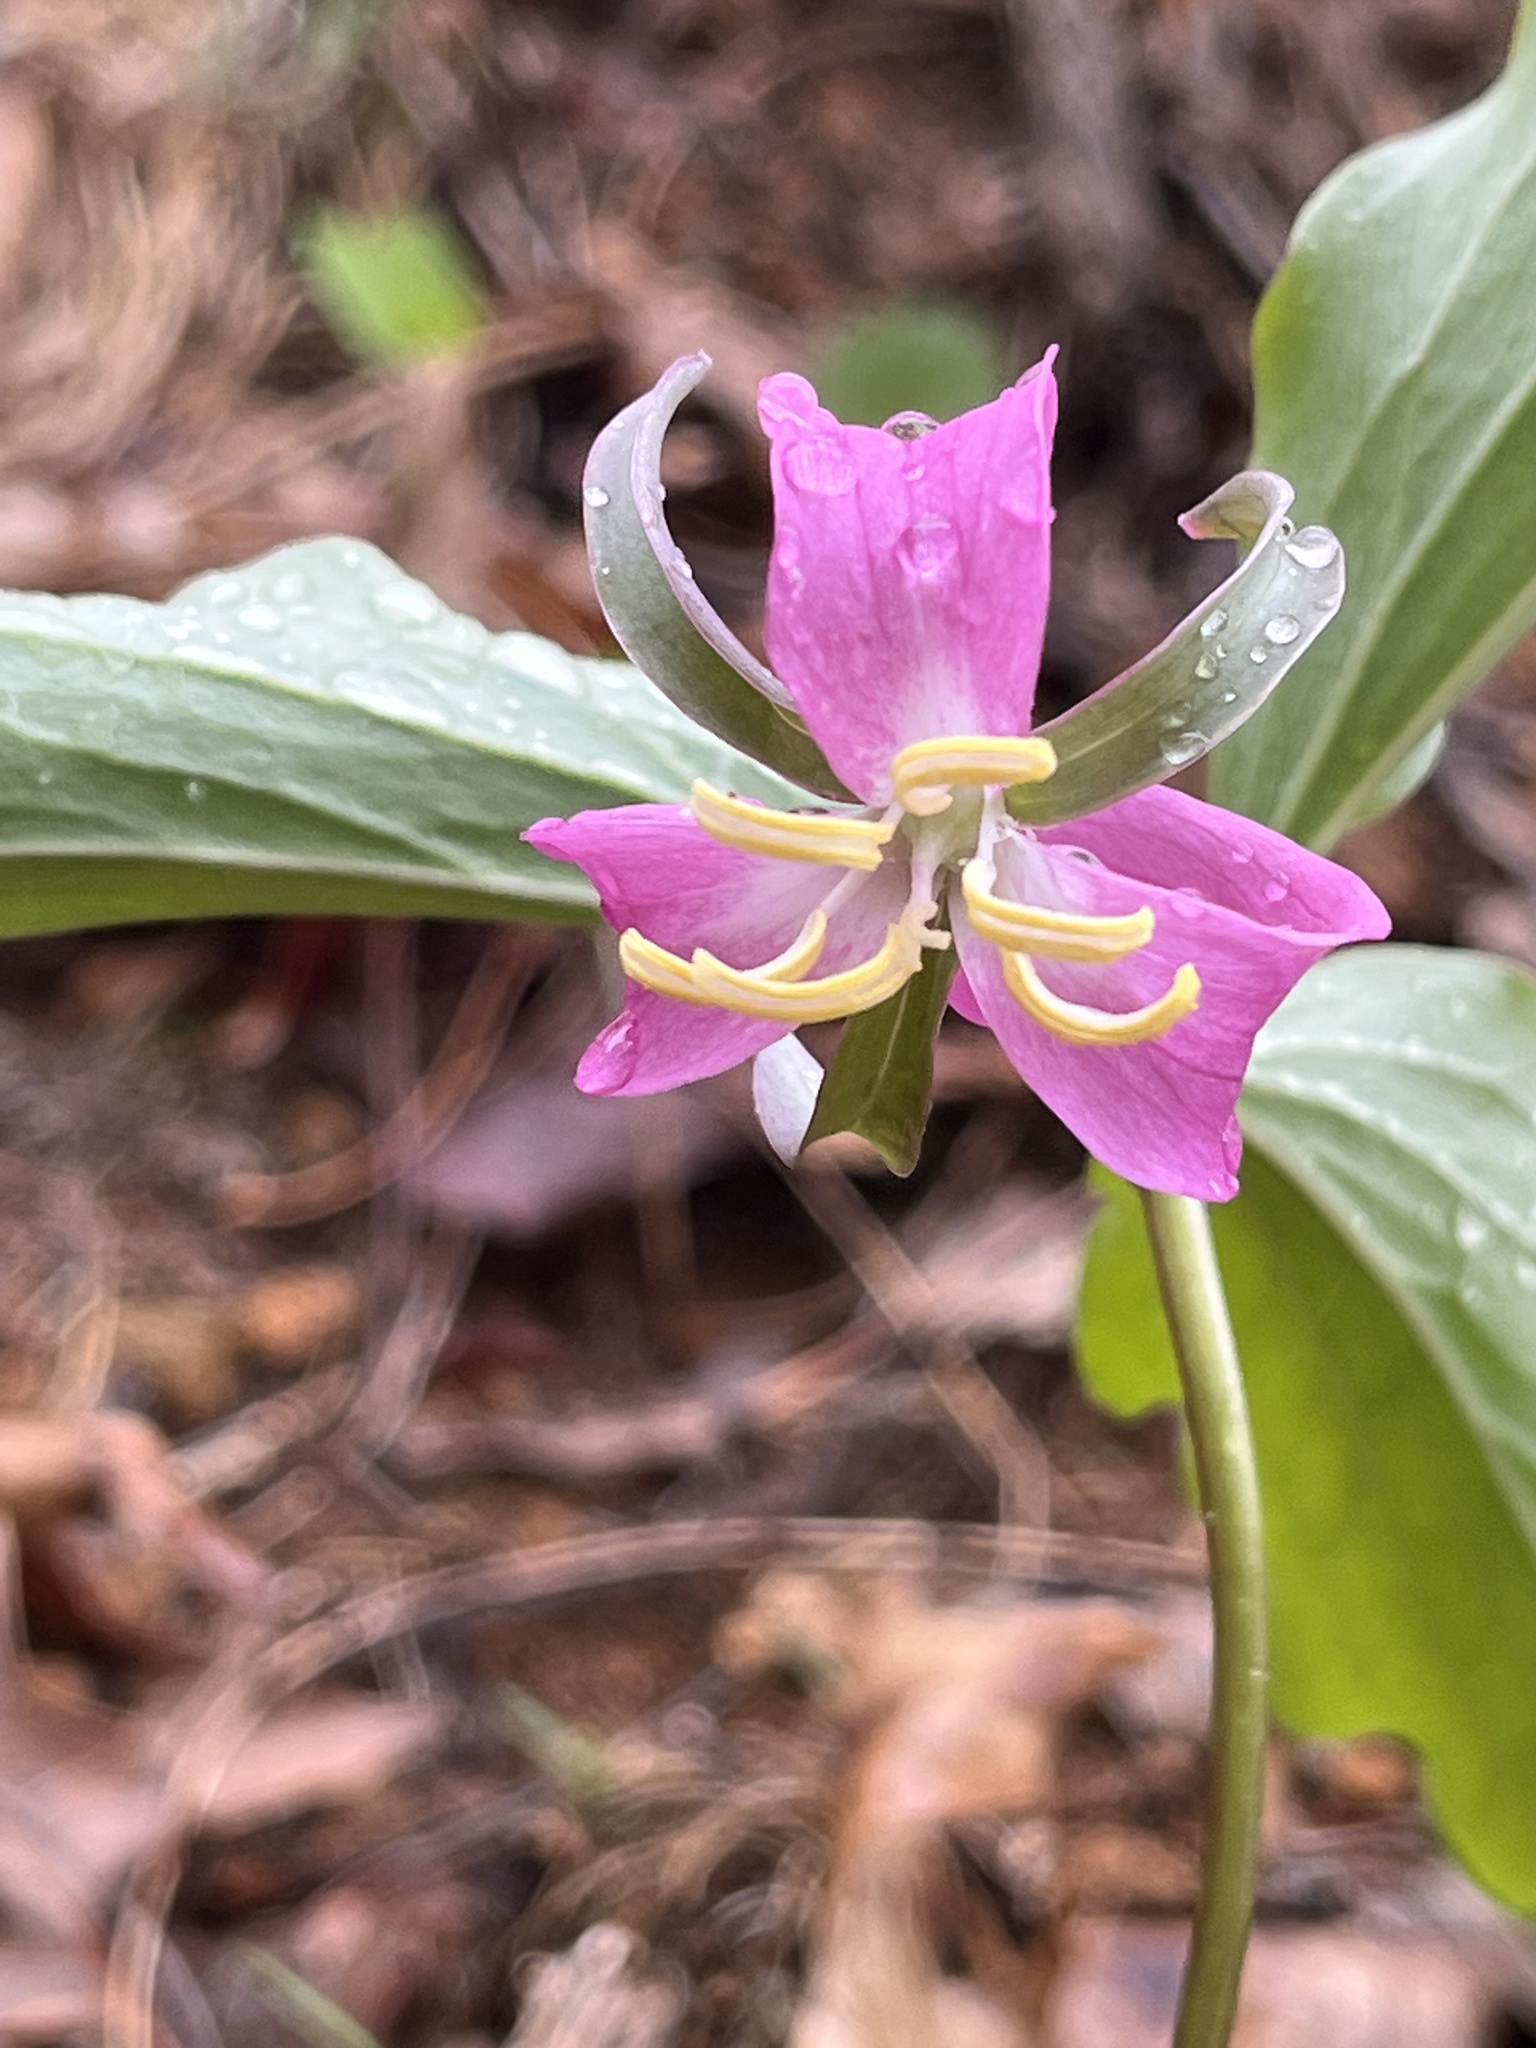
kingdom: Plantae
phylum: Tracheophyta
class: Liliopsida
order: Liliales
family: Melanthiaceae
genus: Trillium
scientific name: Trillium catesbaei
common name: Bashful trillium
